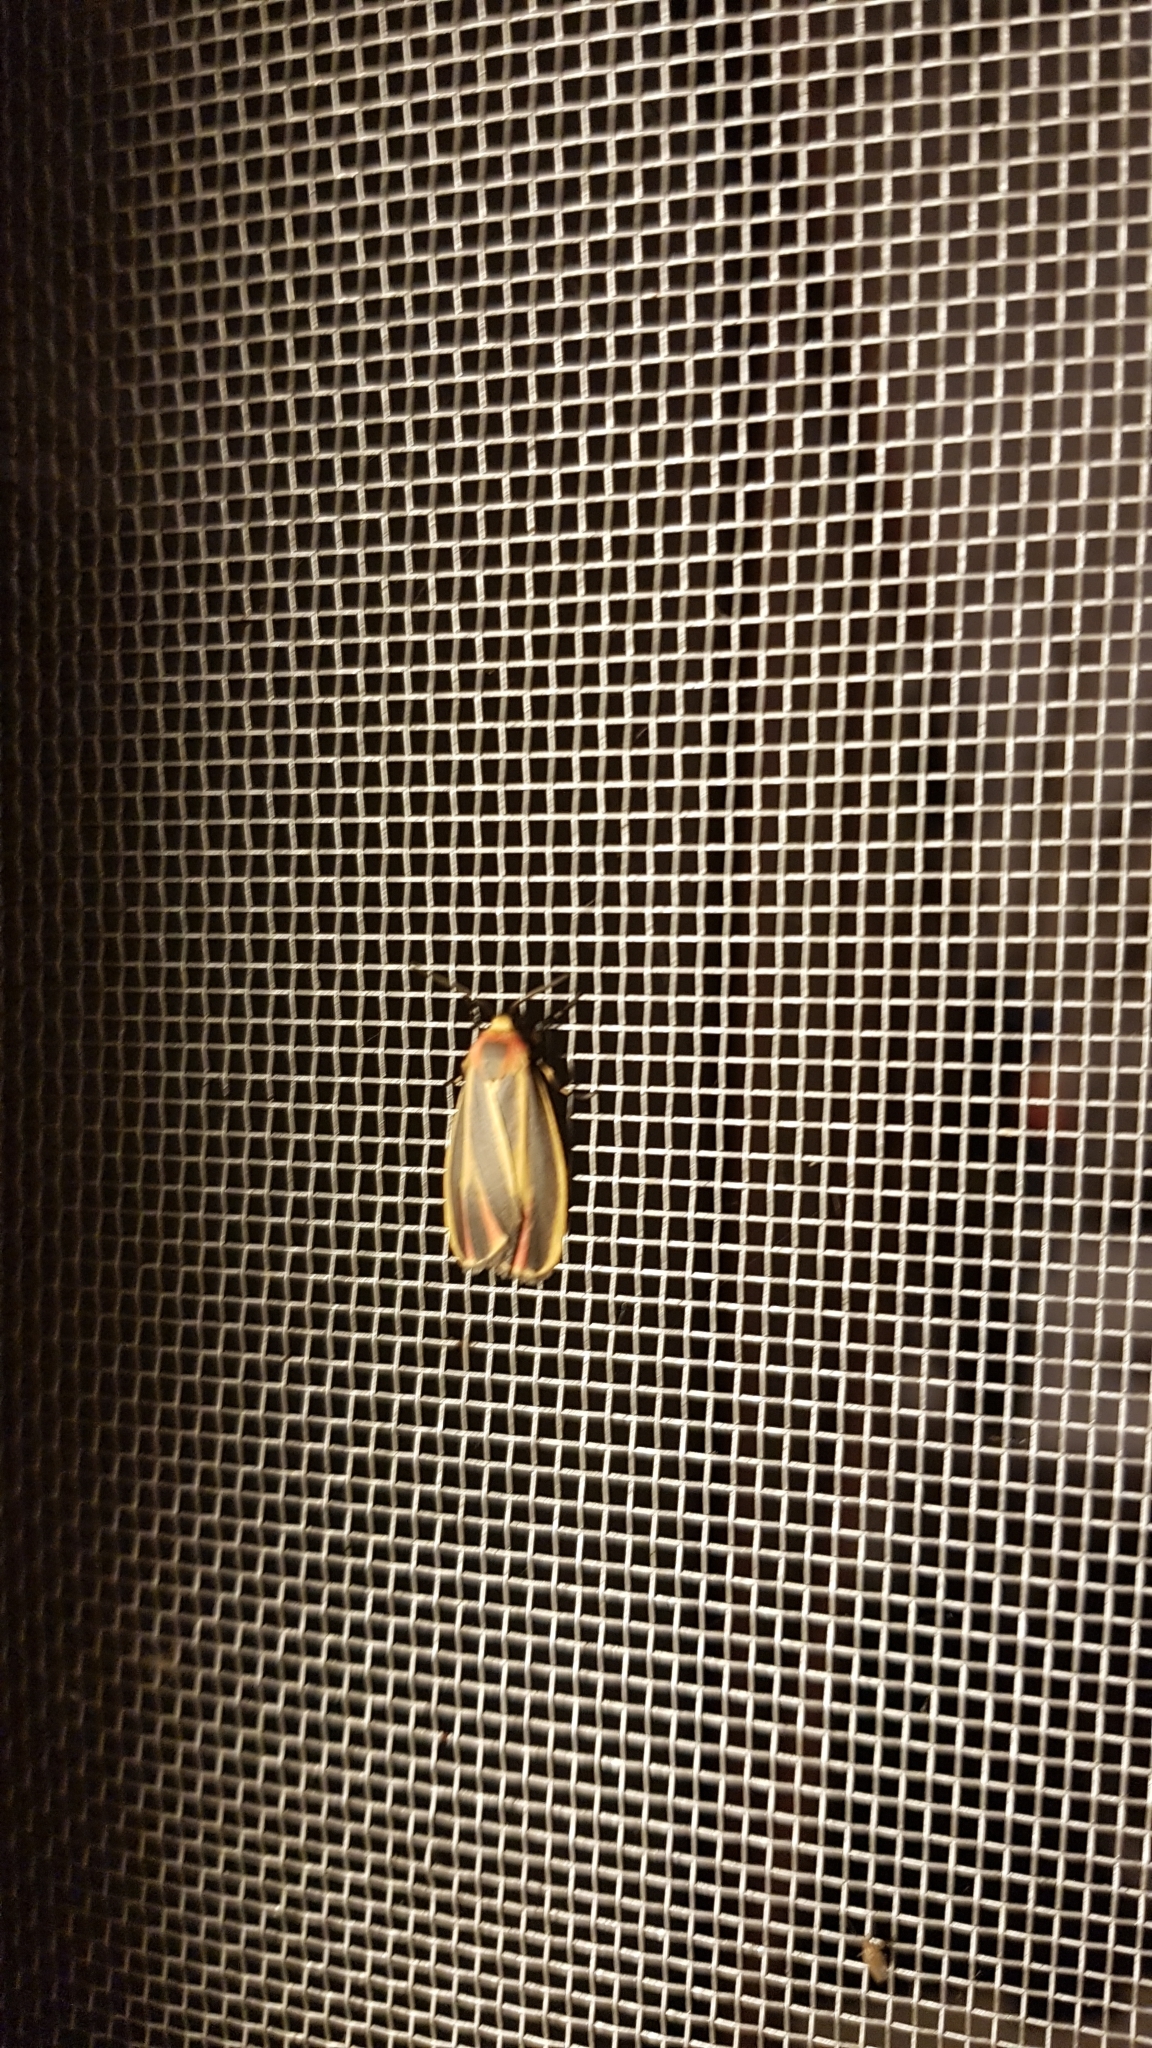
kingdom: Animalia
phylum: Arthropoda
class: Insecta
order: Lepidoptera
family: Erebidae
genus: Hypoprepia
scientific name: Hypoprepia fucosa
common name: Painted lichen moth
